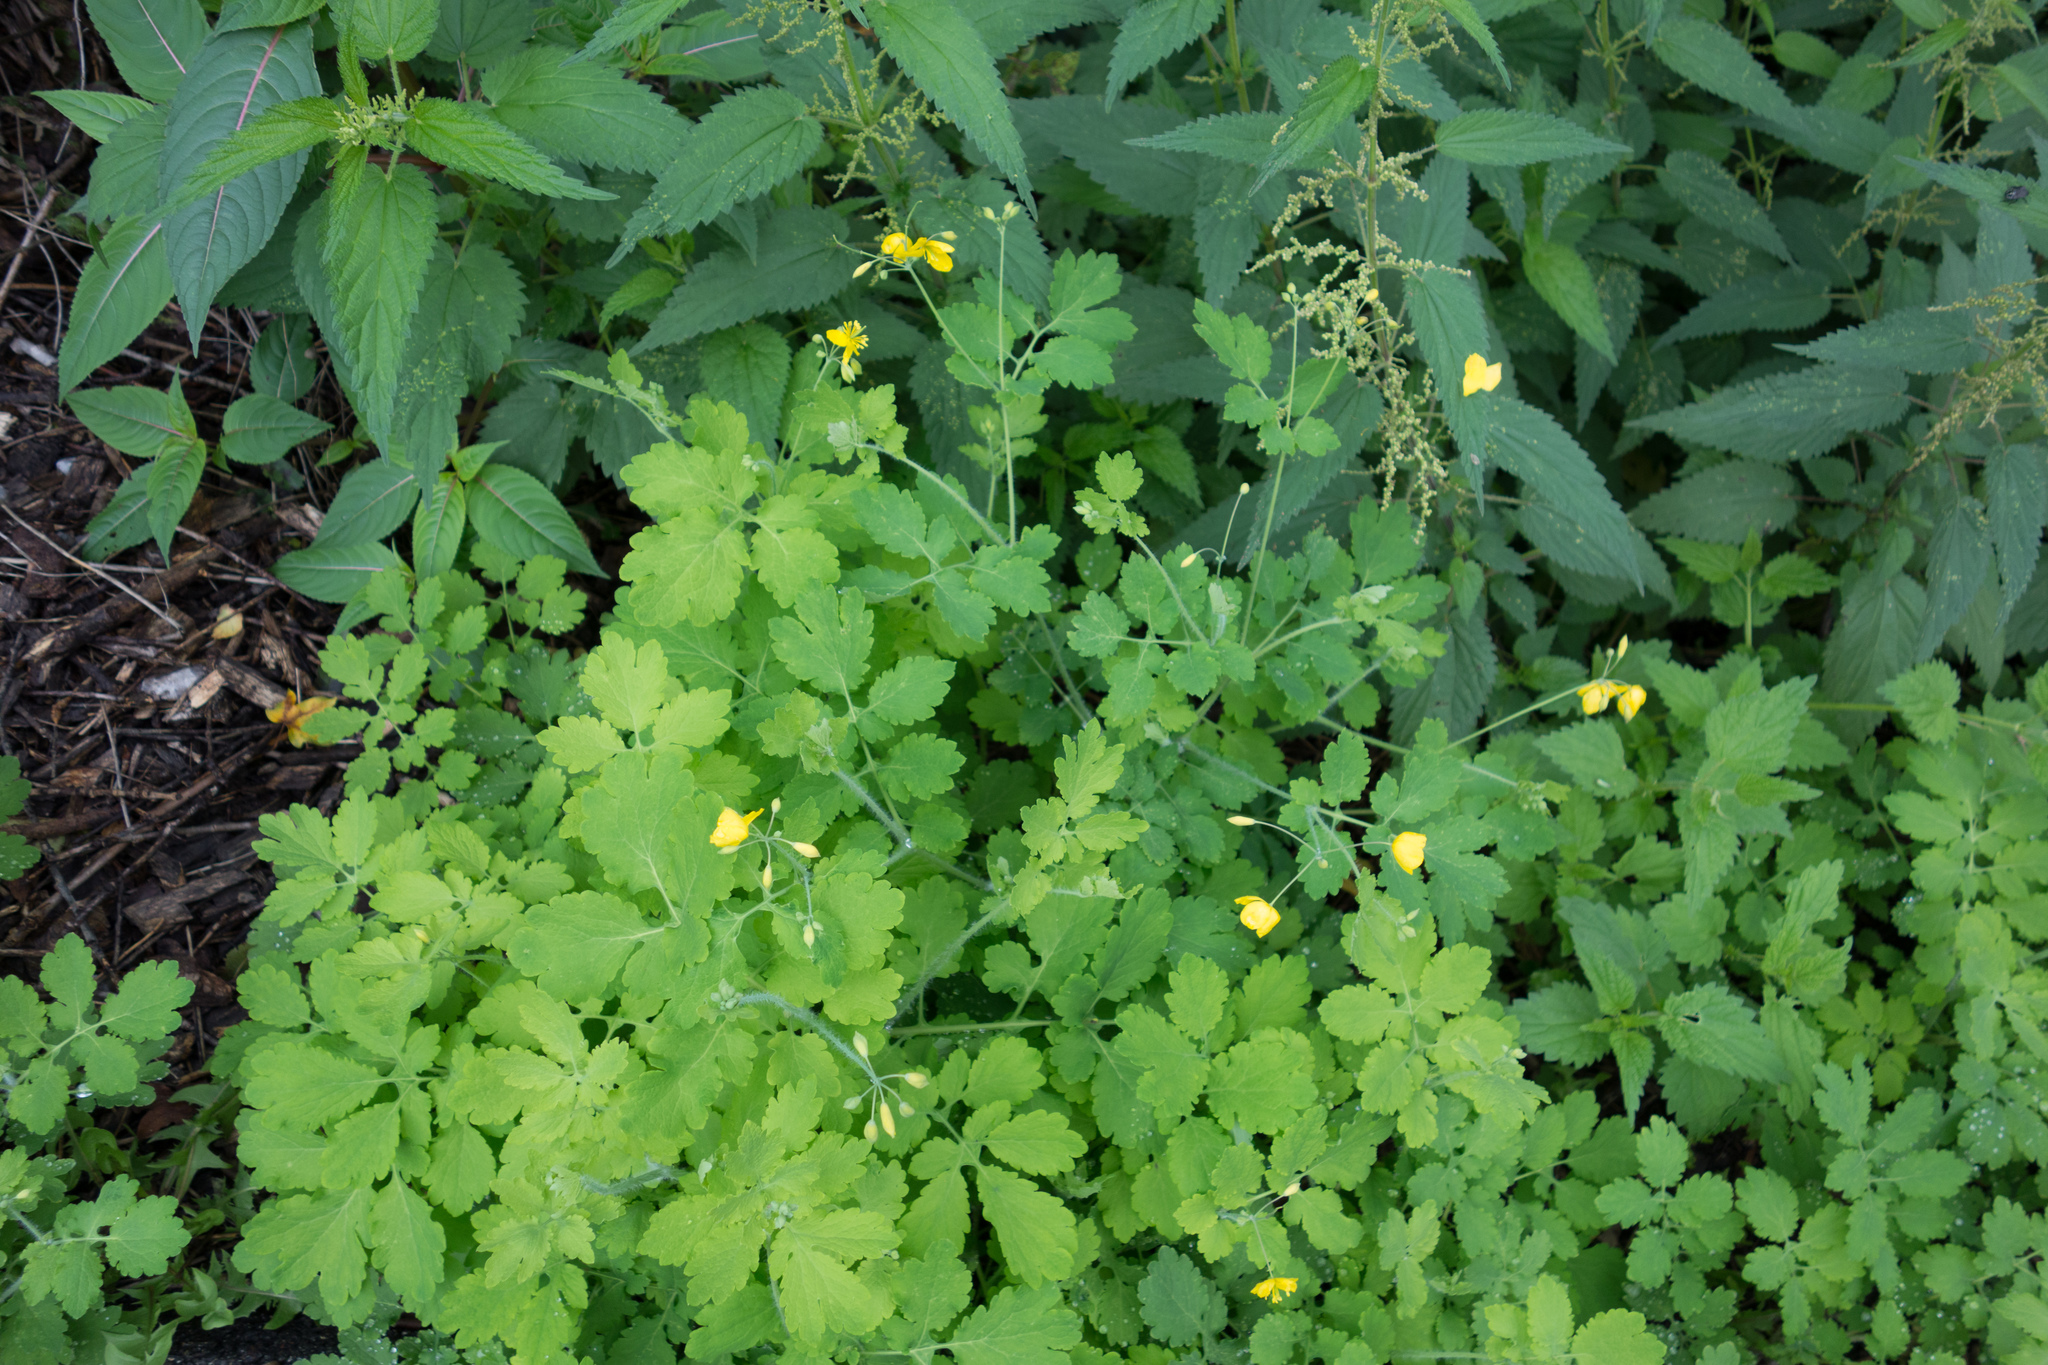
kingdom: Plantae
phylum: Tracheophyta
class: Magnoliopsida
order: Ranunculales
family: Papaveraceae
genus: Chelidonium
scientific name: Chelidonium majus
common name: Greater celandine
